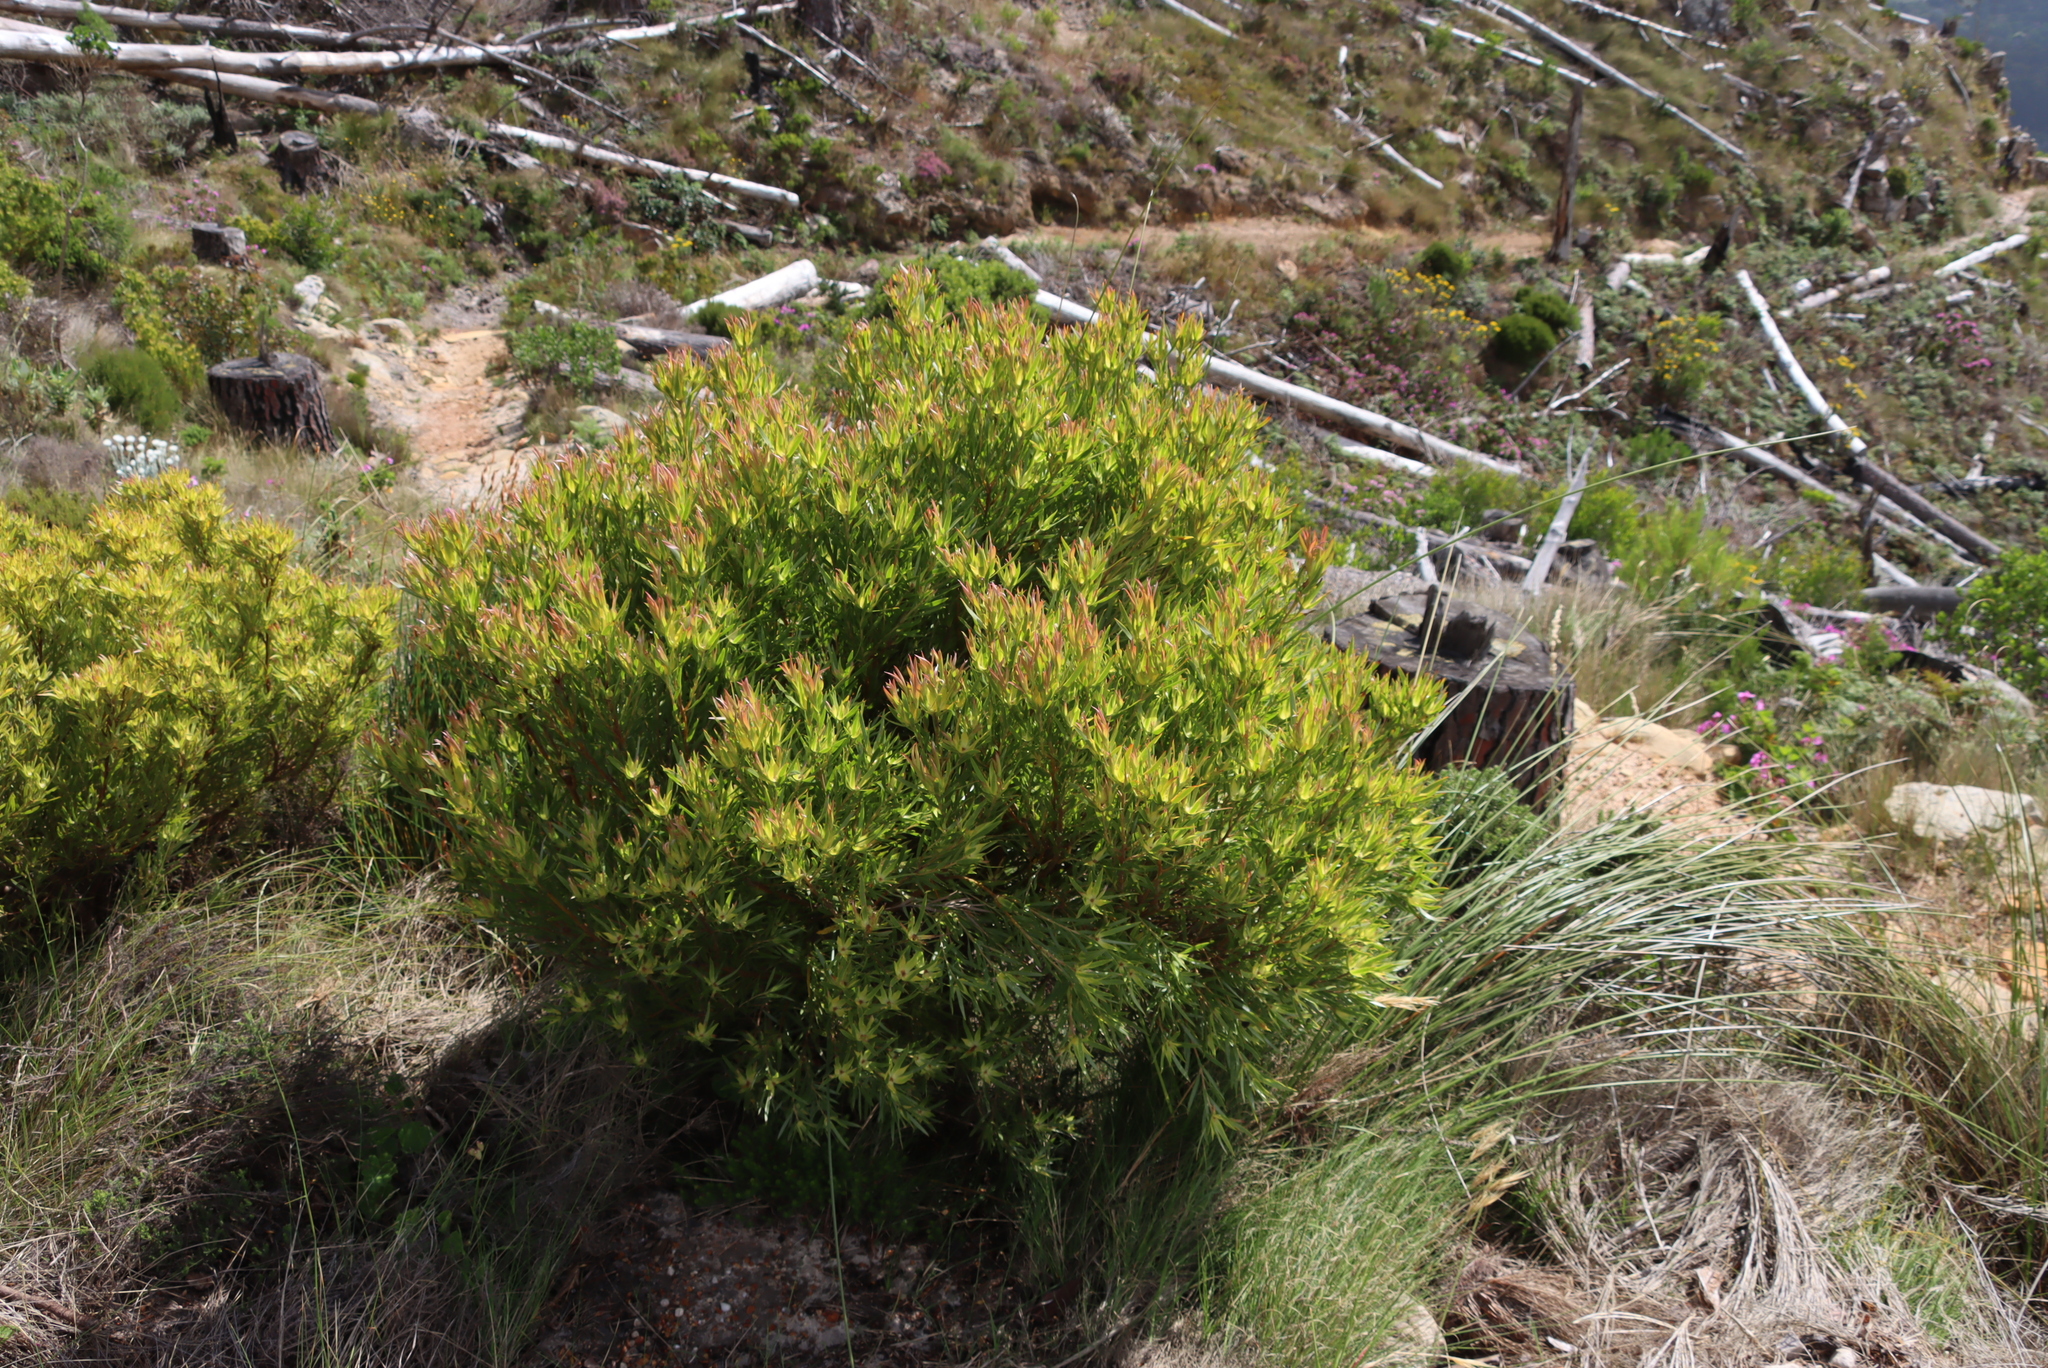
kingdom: Plantae
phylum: Tracheophyta
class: Magnoliopsida
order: Proteales
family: Proteaceae
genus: Leucadendron
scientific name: Leucadendron xanthoconus
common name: Sickle-leaf conebush
